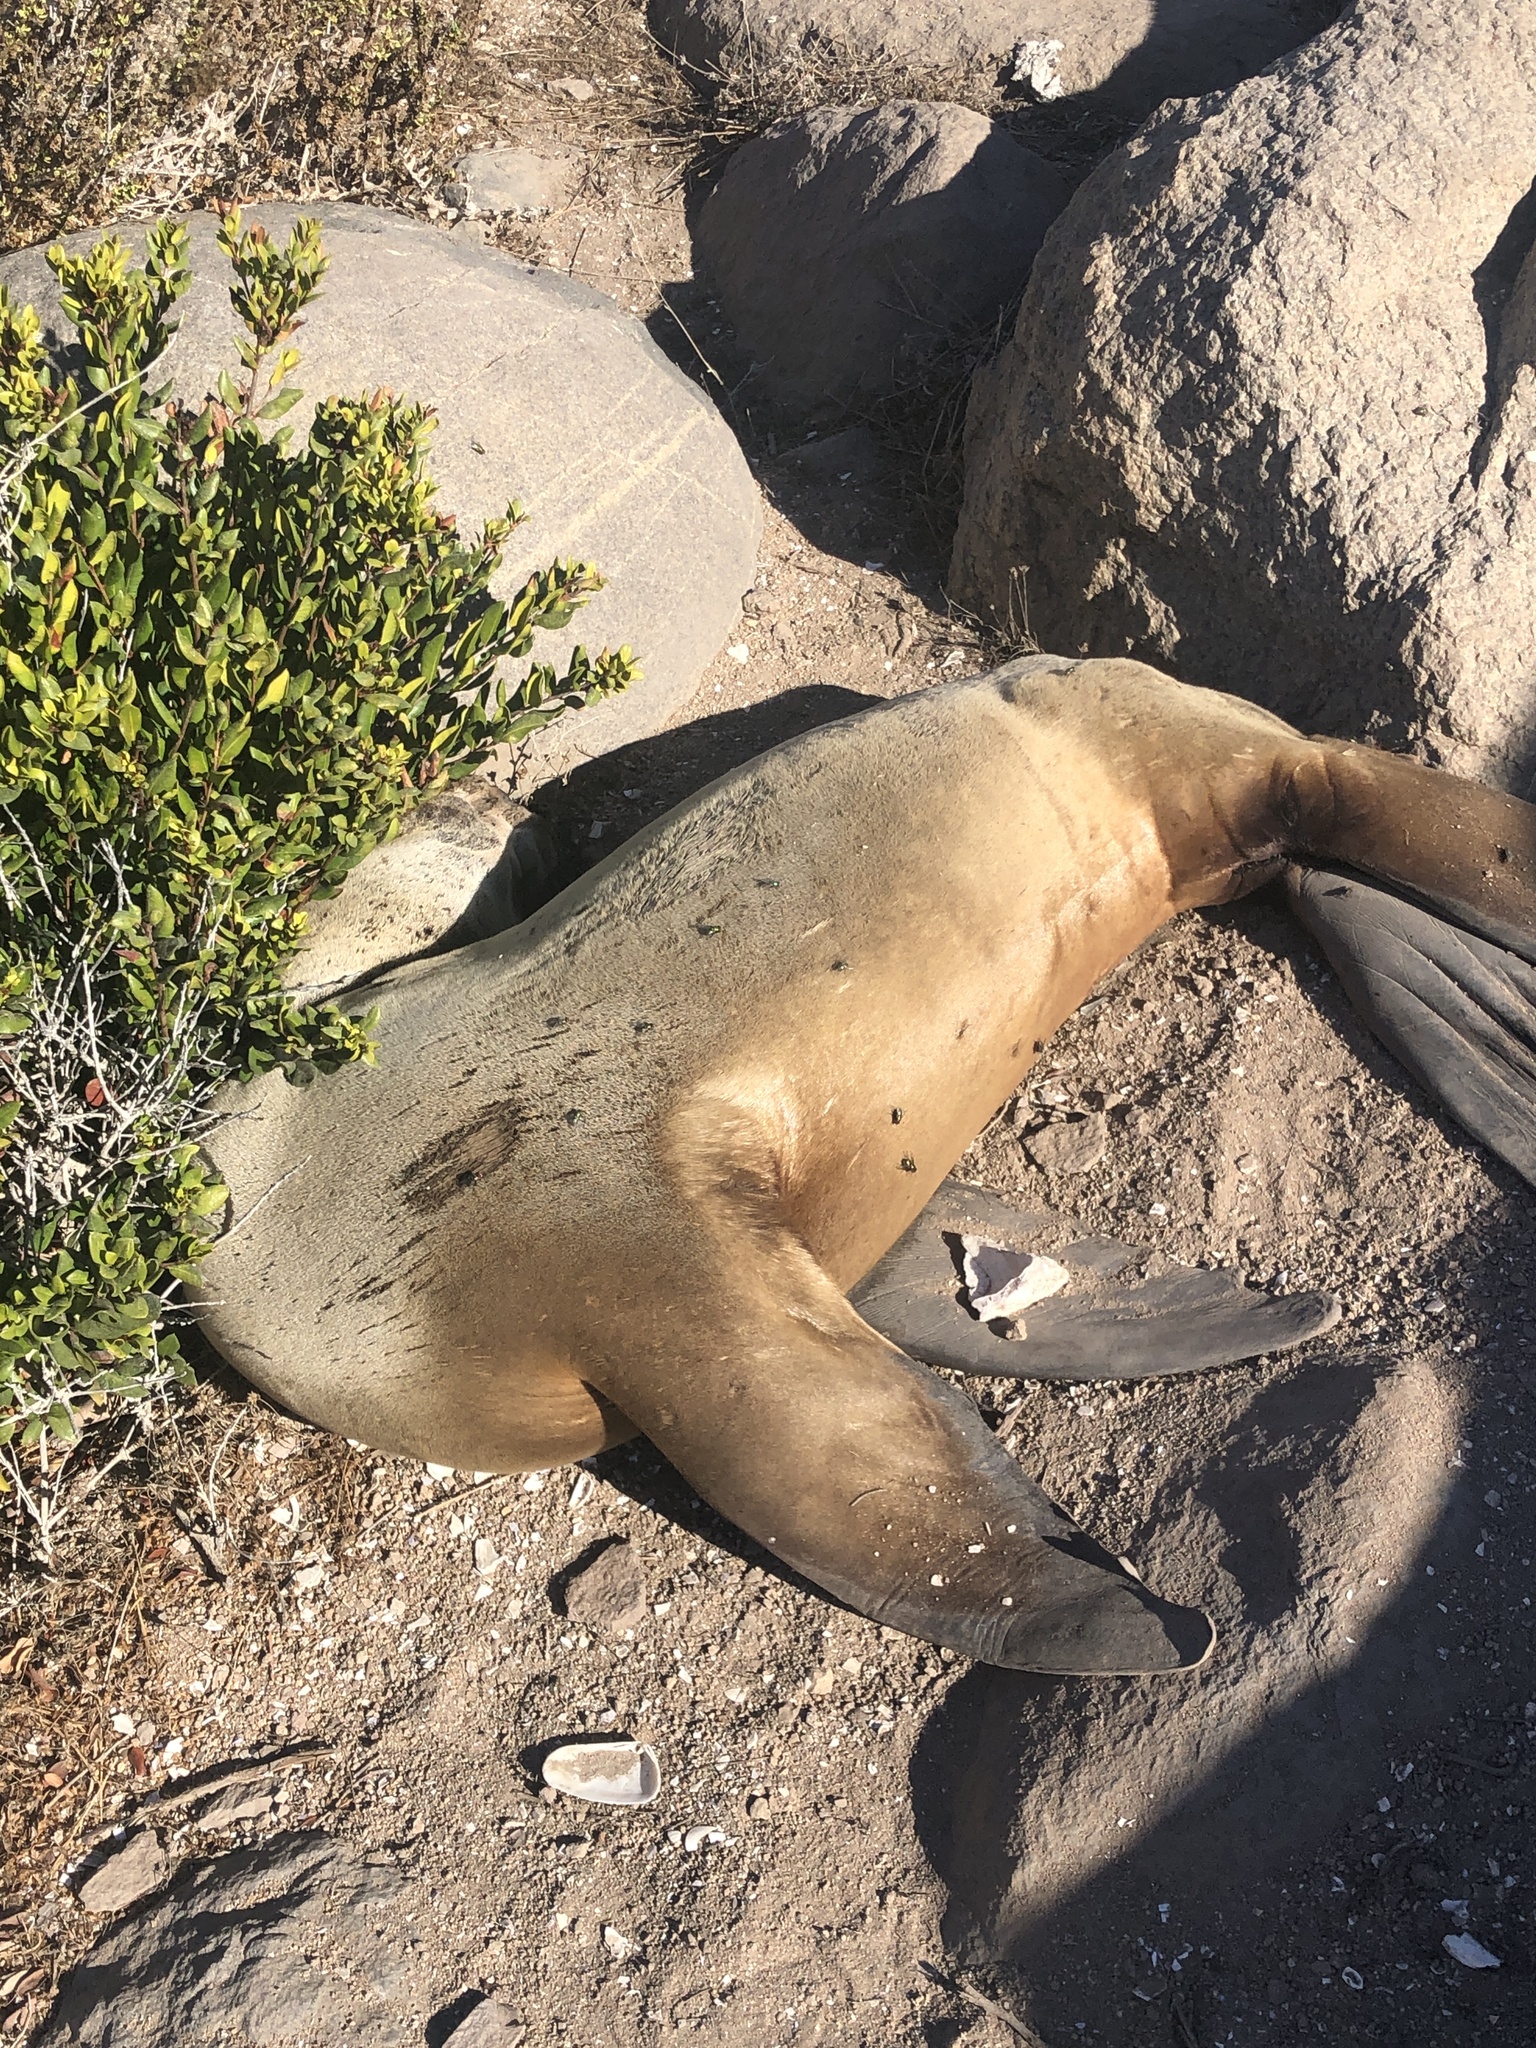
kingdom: Animalia
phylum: Chordata
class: Mammalia
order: Carnivora
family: Otariidae
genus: Otaria
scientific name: Otaria byronia
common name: South american sea lion
